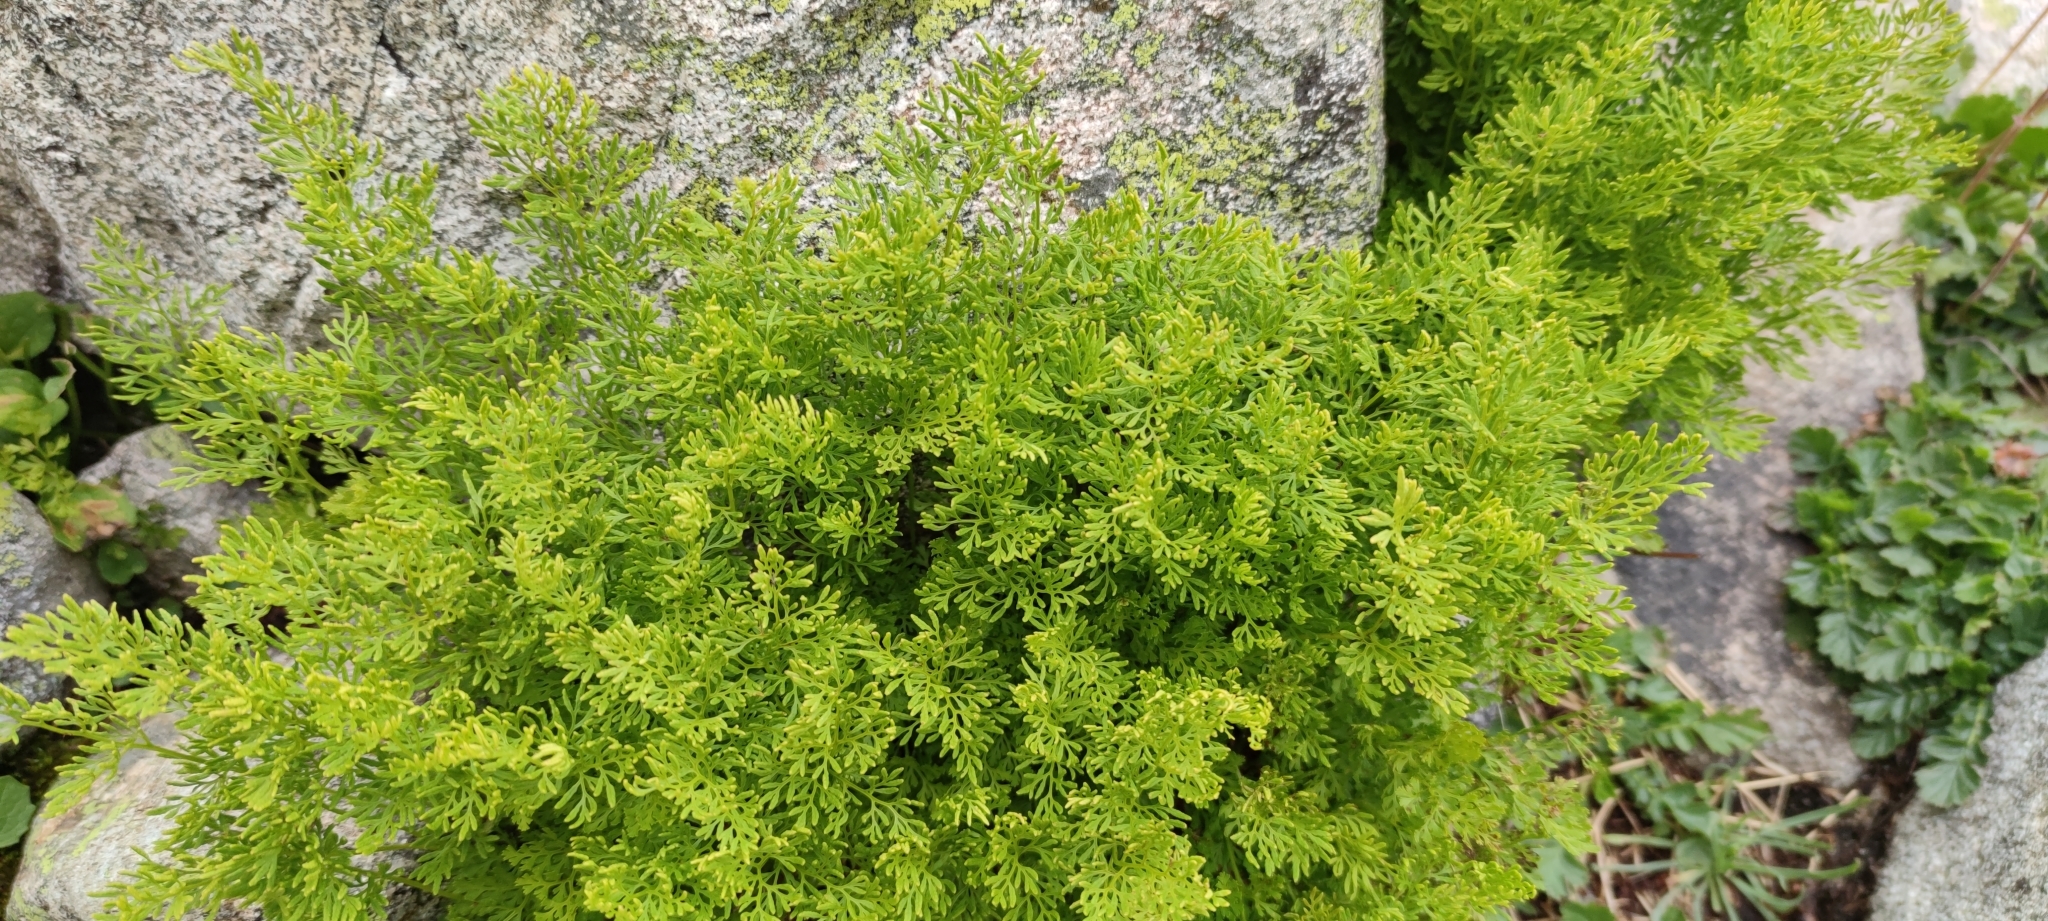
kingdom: Plantae
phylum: Tracheophyta
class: Polypodiopsida
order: Polypodiales
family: Pteridaceae
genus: Cryptogramma
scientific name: Cryptogramma crispa
